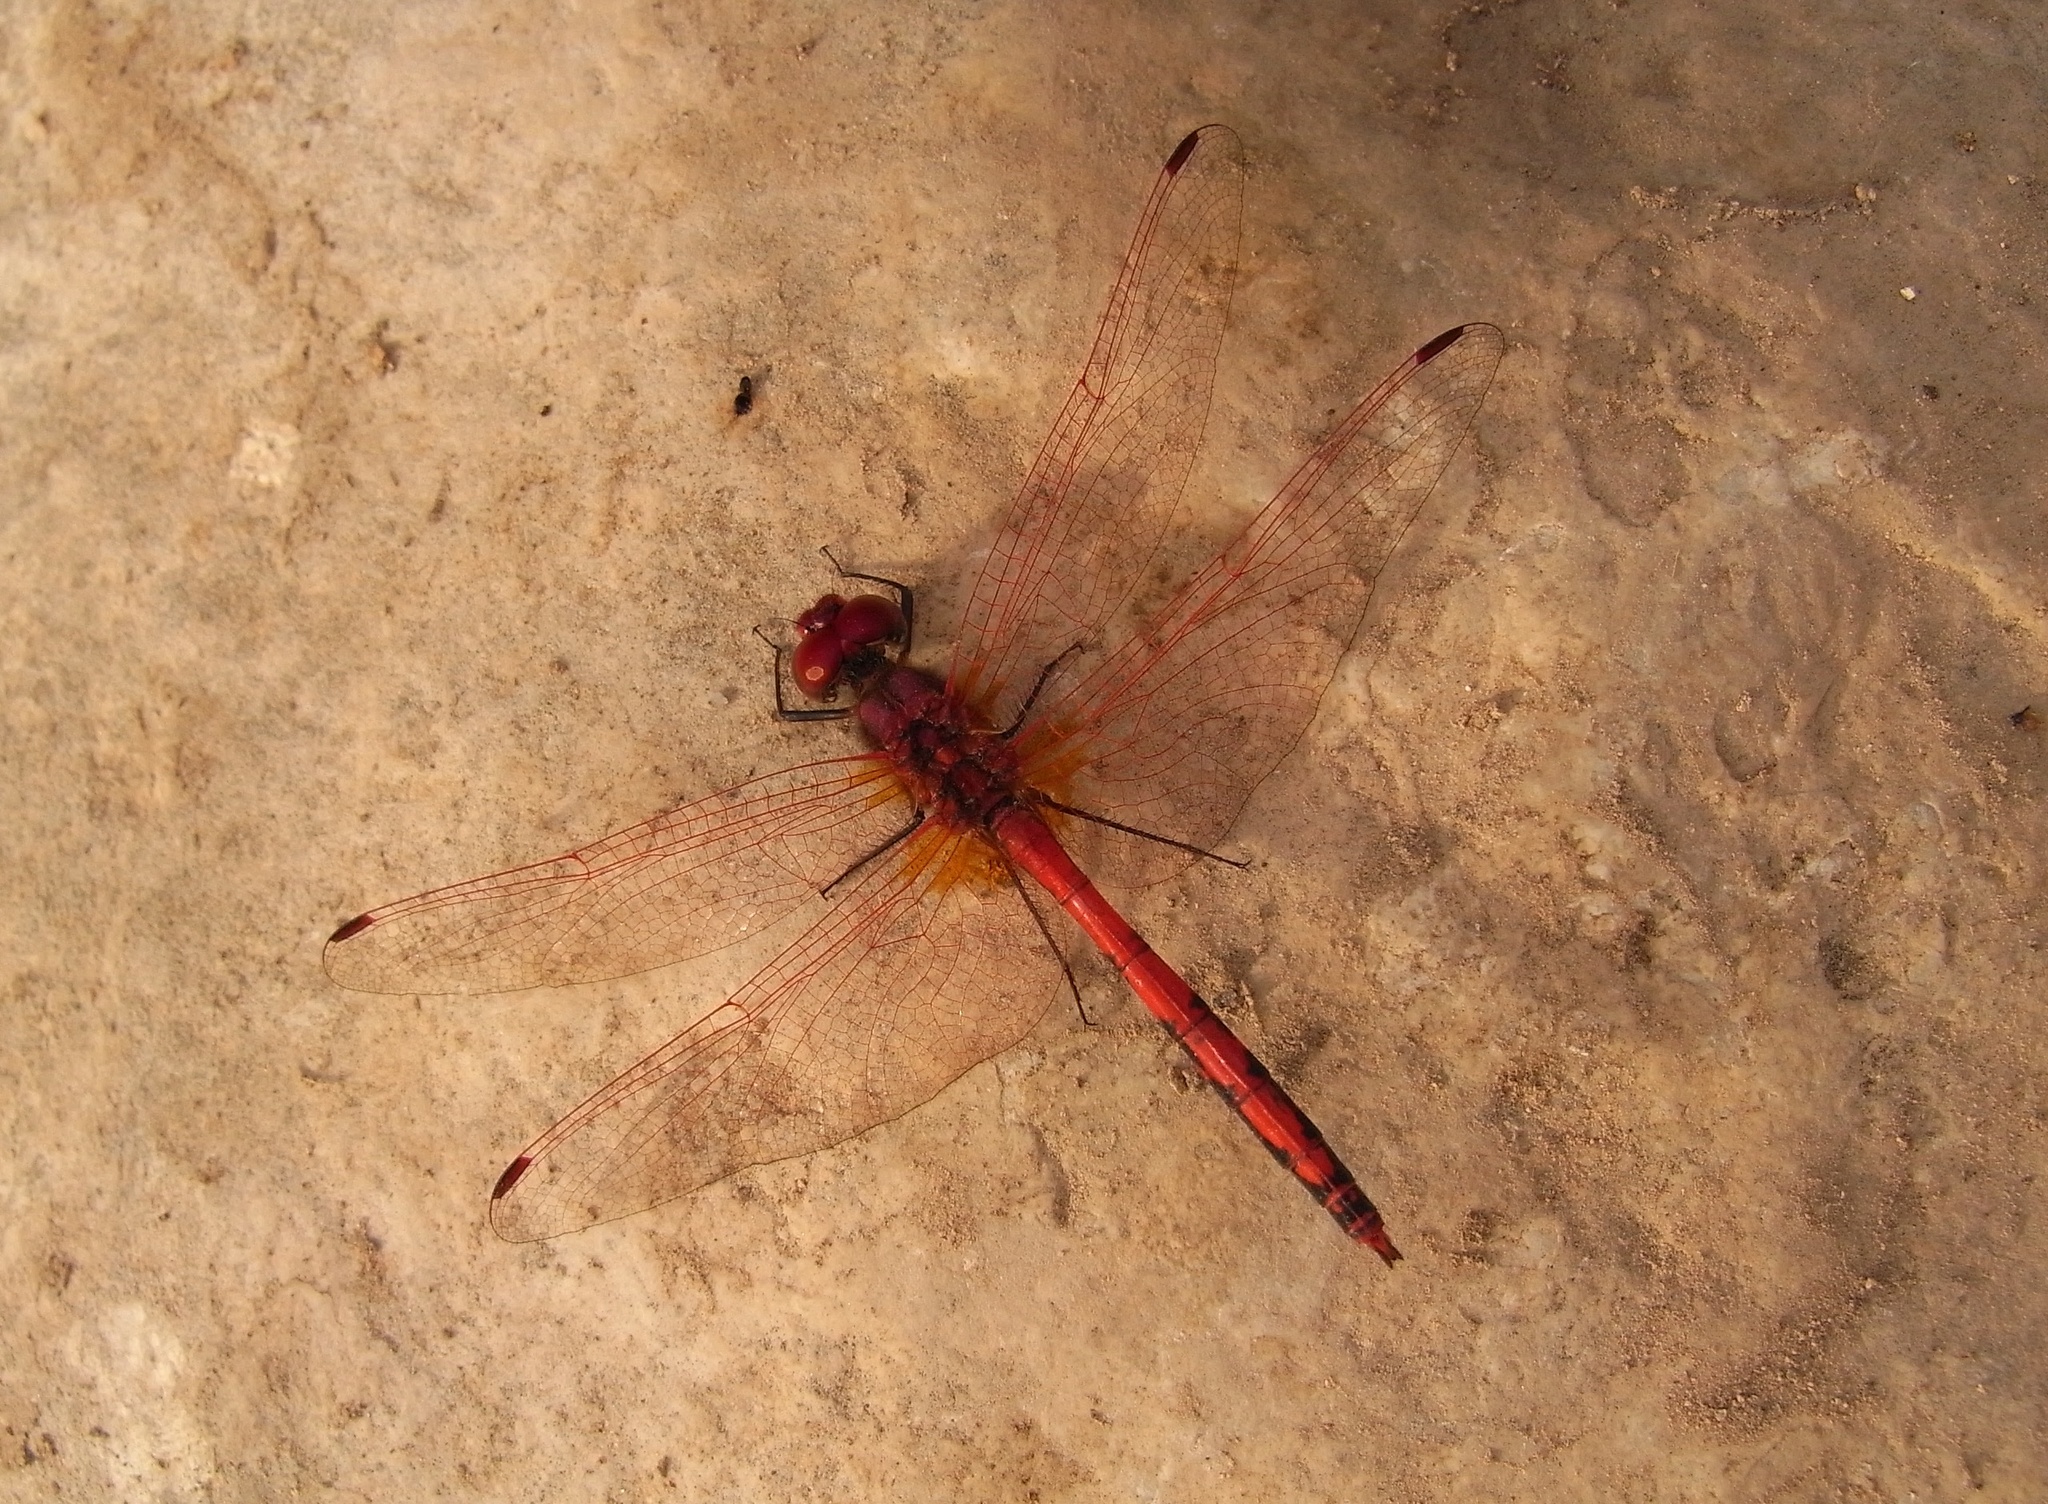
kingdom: Animalia
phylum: Arthropoda
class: Insecta
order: Odonata
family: Libellulidae
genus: Trithemis
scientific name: Trithemis arteriosa
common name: Red-veined dropwing
